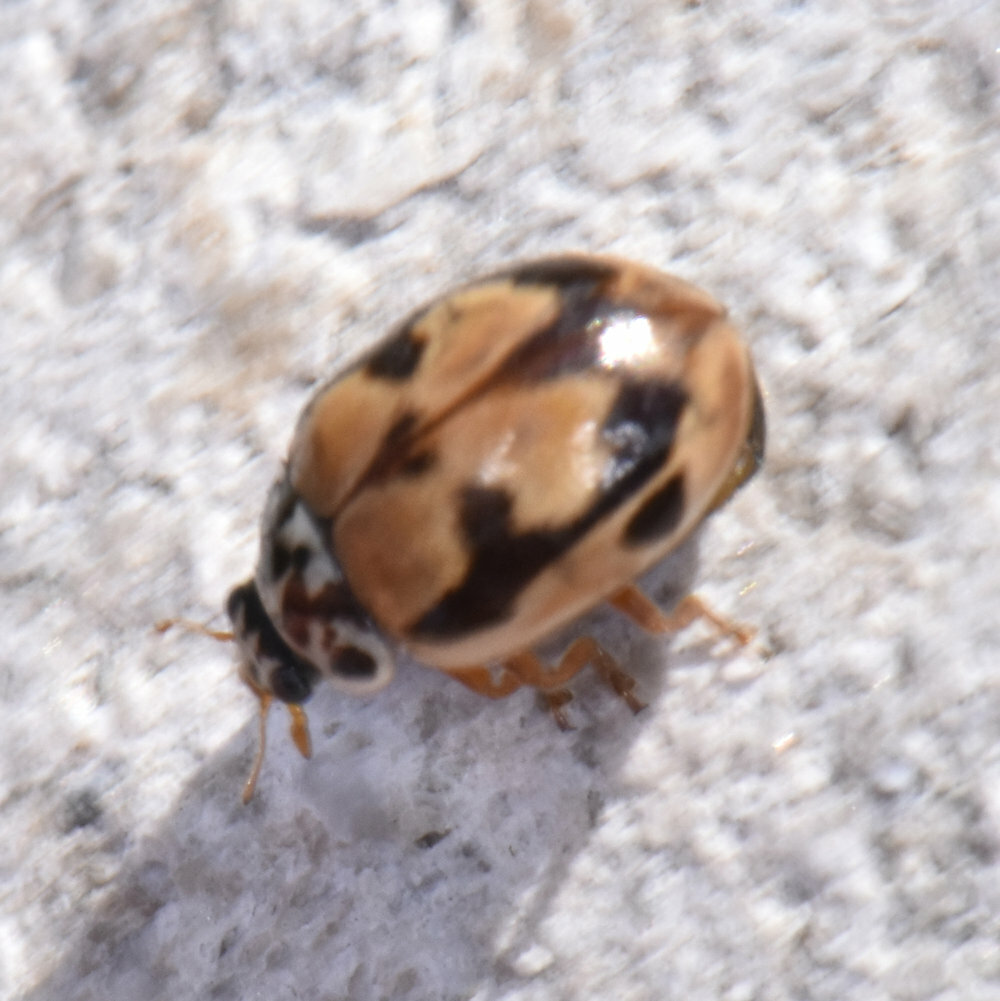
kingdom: Animalia
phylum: Arthropoda
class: Insecta
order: Coleoptera
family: Coccinellidae
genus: Mulsantina
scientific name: Mulsantina picta
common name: Painted ladybird
